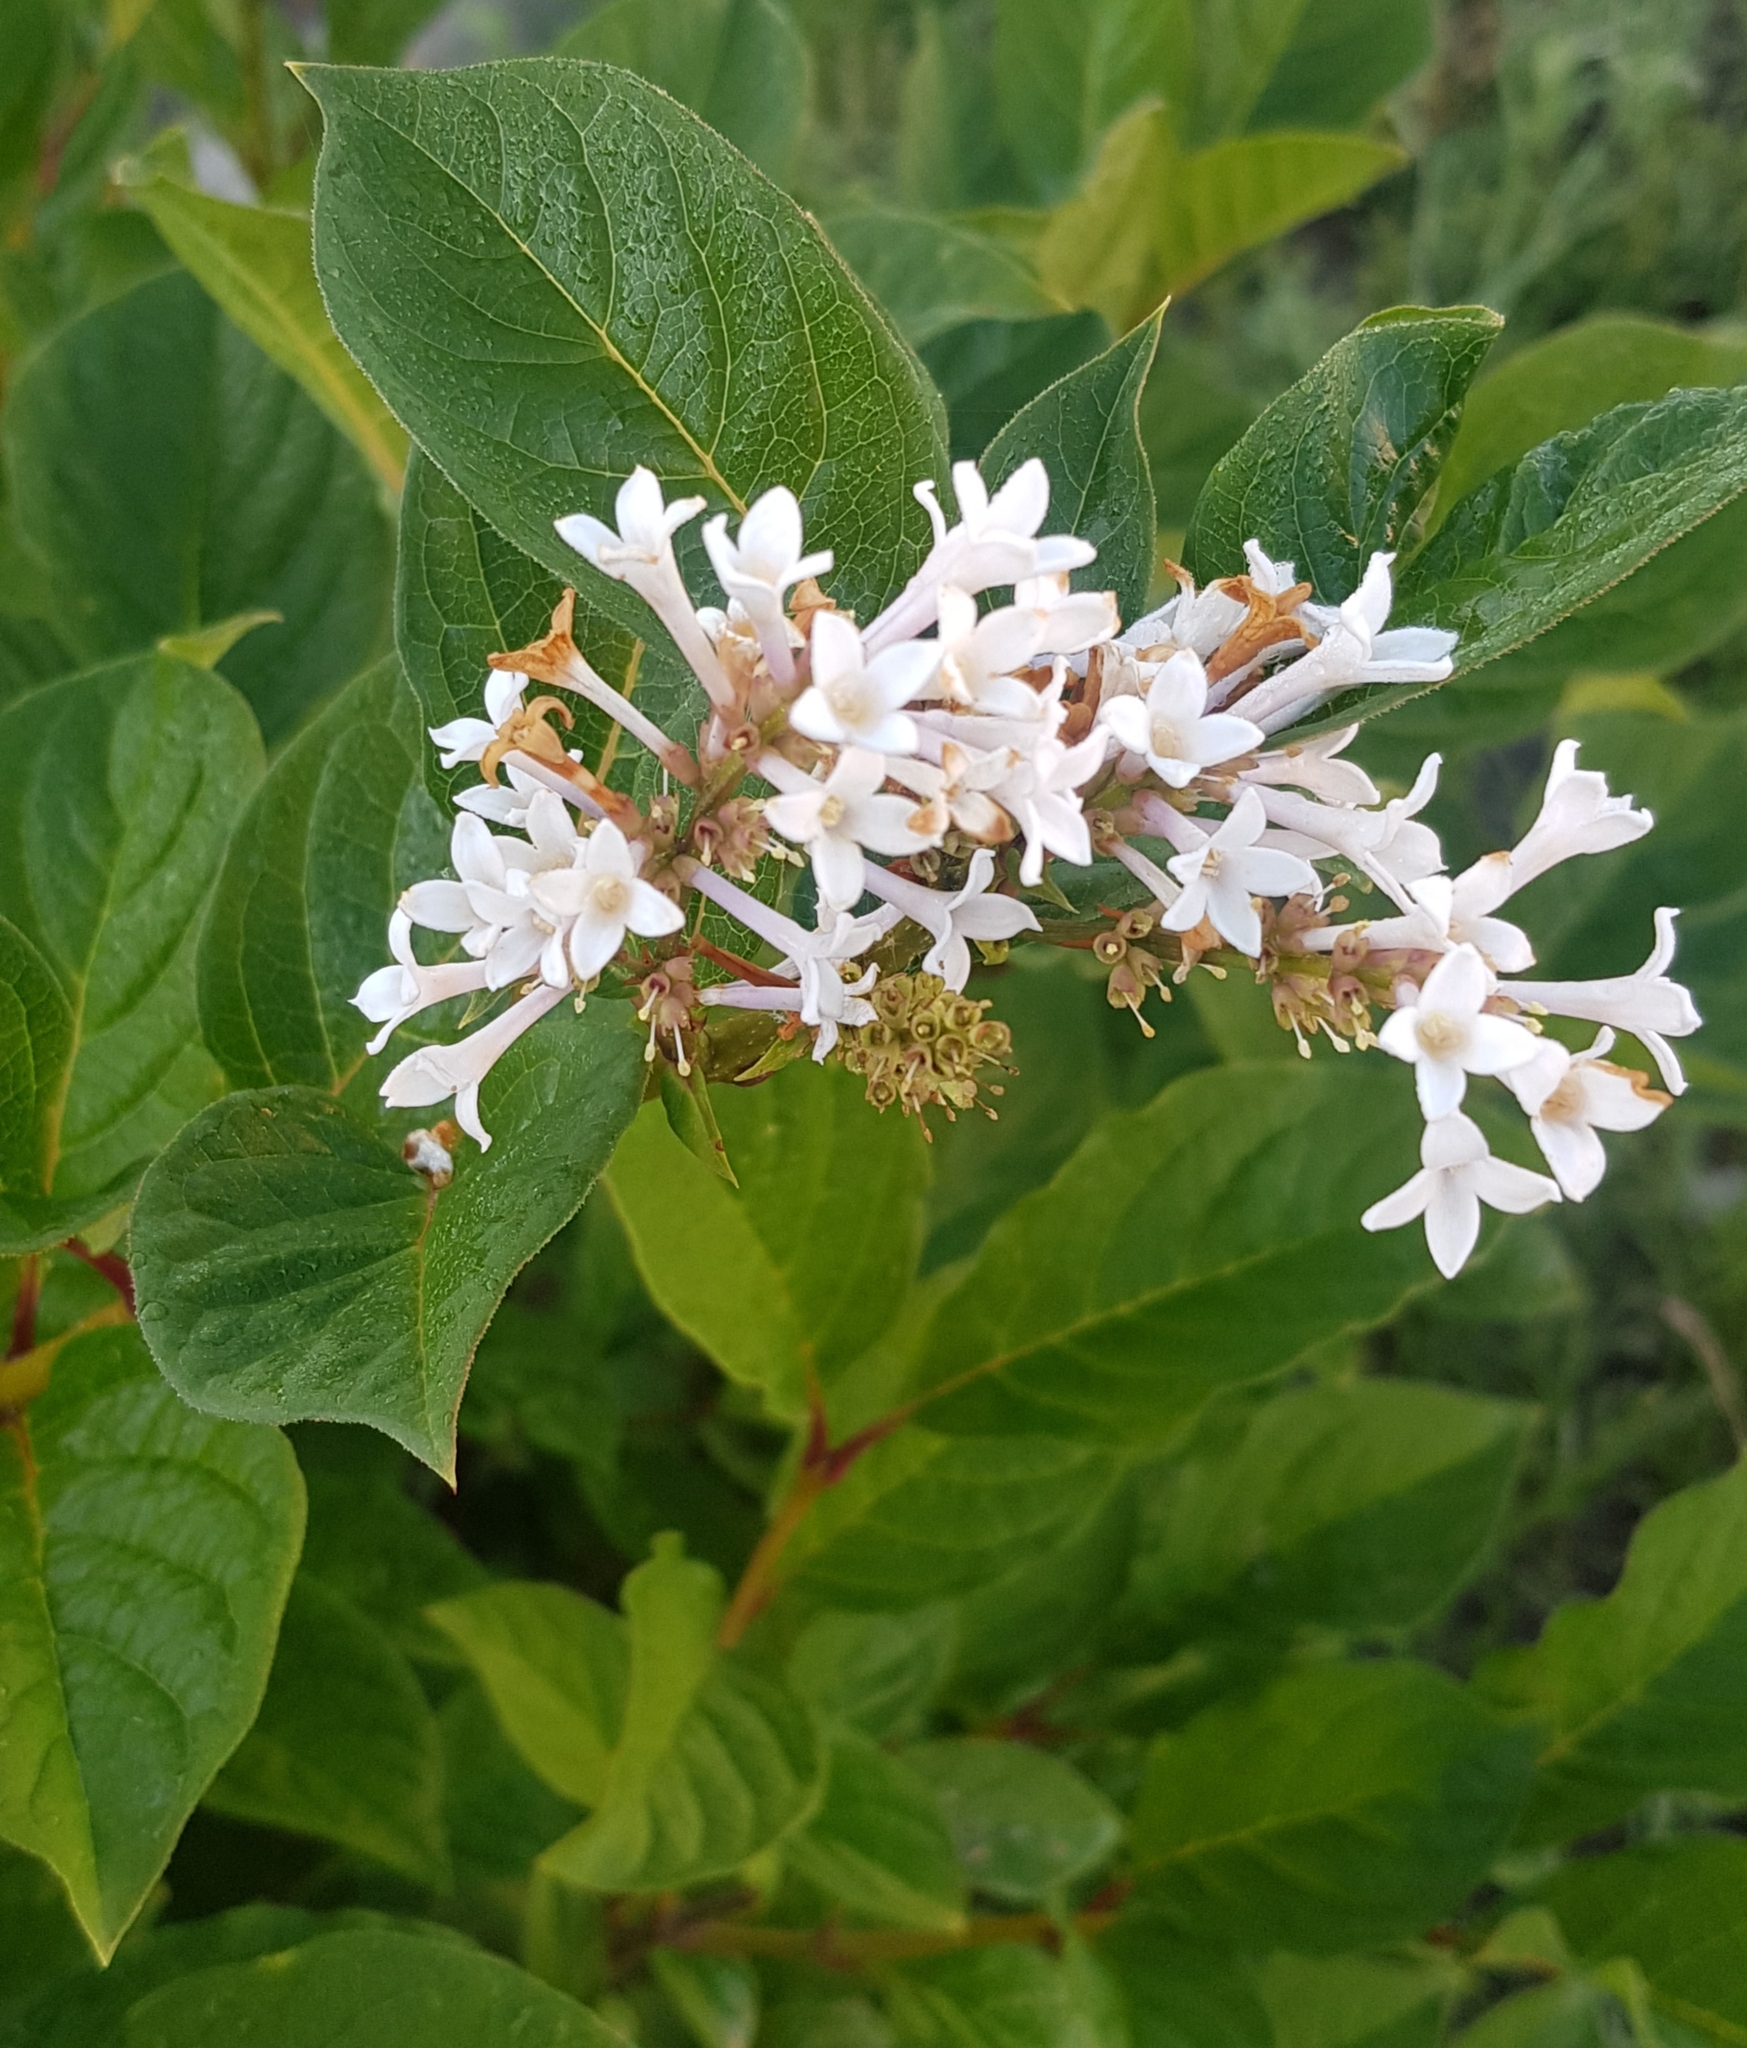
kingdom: Plantae
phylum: Tracheophyta
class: Magnoliopsida
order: Lamiales
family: Oleaceae
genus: Syringa
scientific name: Syringa josikaea
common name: Hungarian lilac
